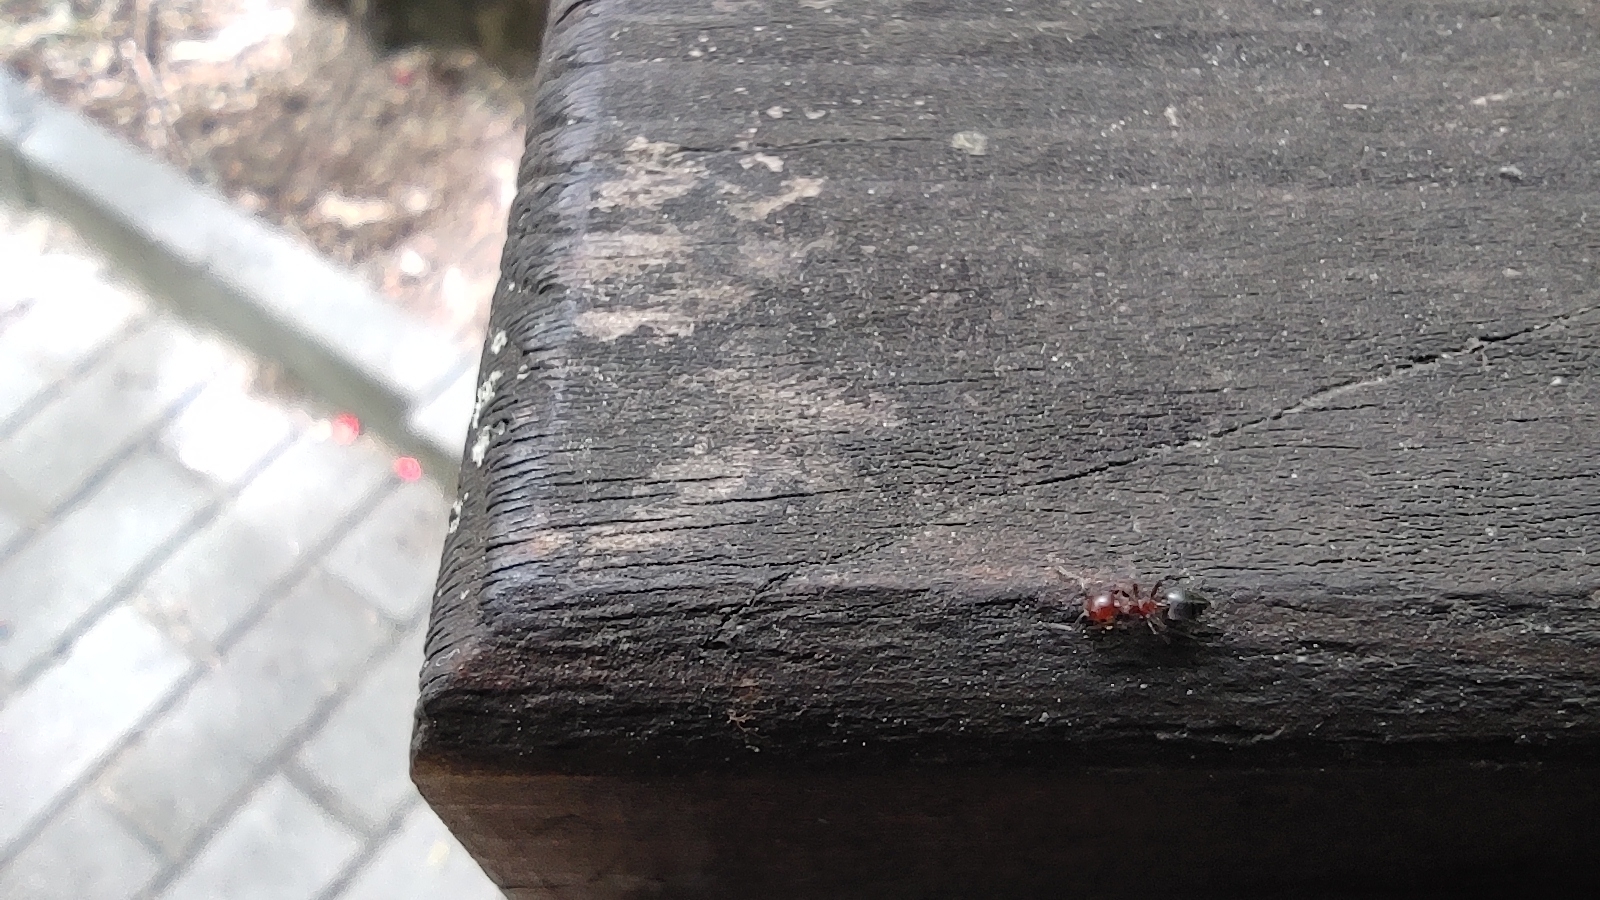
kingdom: Animalia
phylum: Arthropoda
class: Insecta
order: Hymenoptera
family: Formicidae
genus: Crematogaster
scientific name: Crematogaster schmidti
